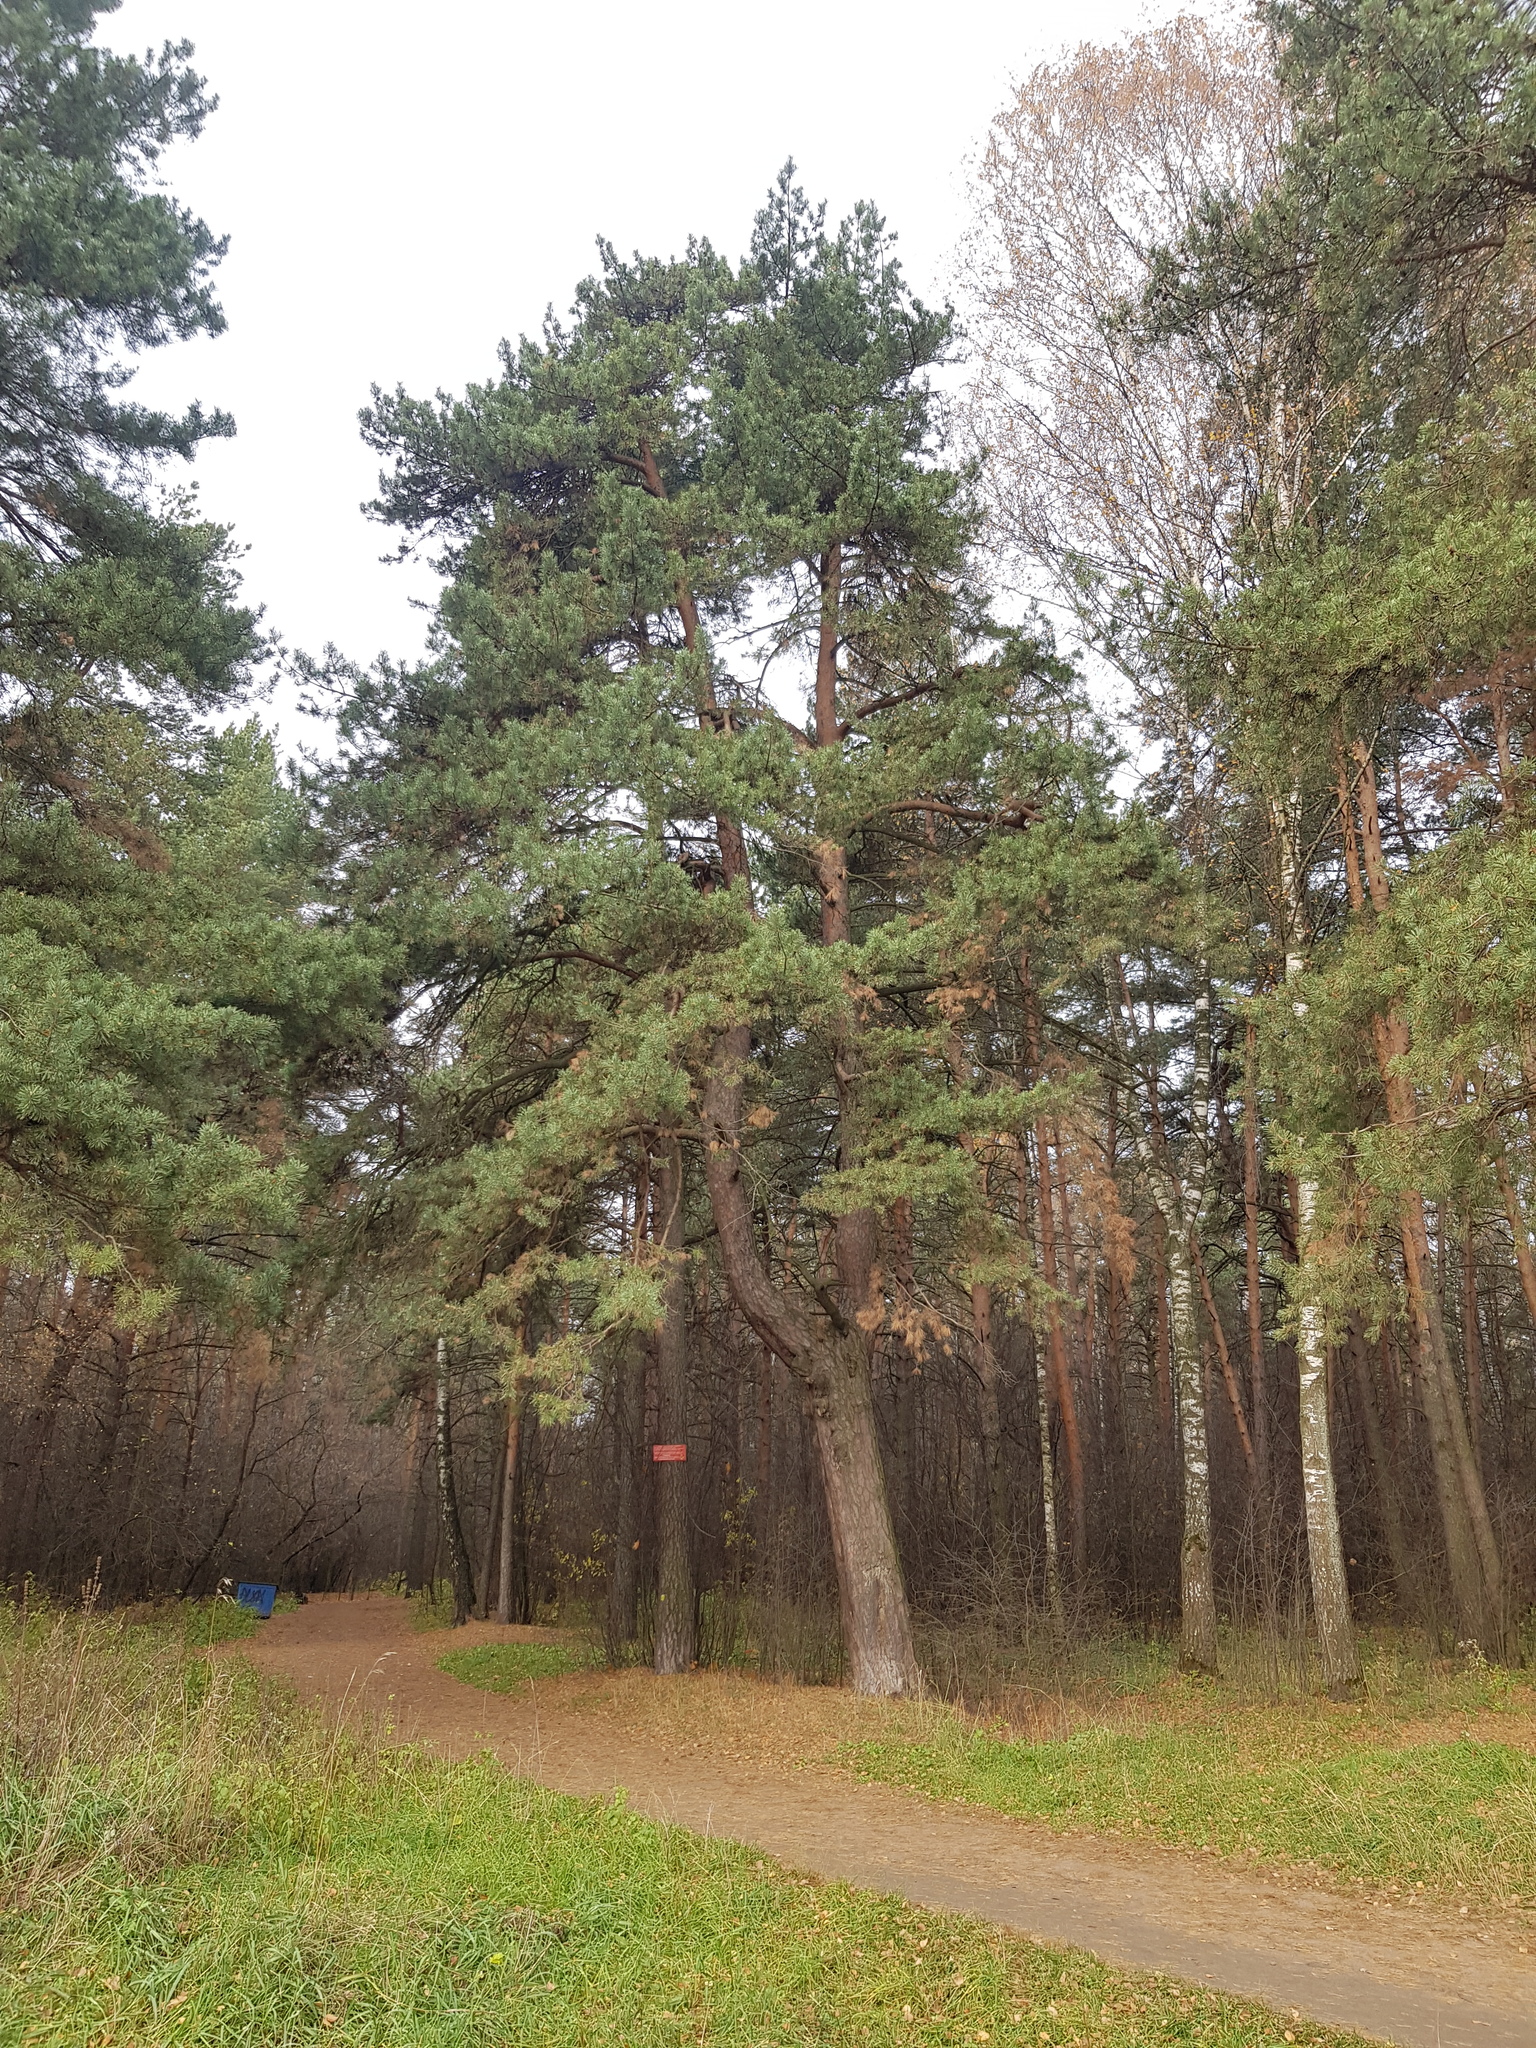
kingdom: Plantae
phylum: Tracheophyta
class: Pinopsida
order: Pinales
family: Pinaceae
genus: Pinus
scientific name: Pinus sylvestris
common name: Scots pine
